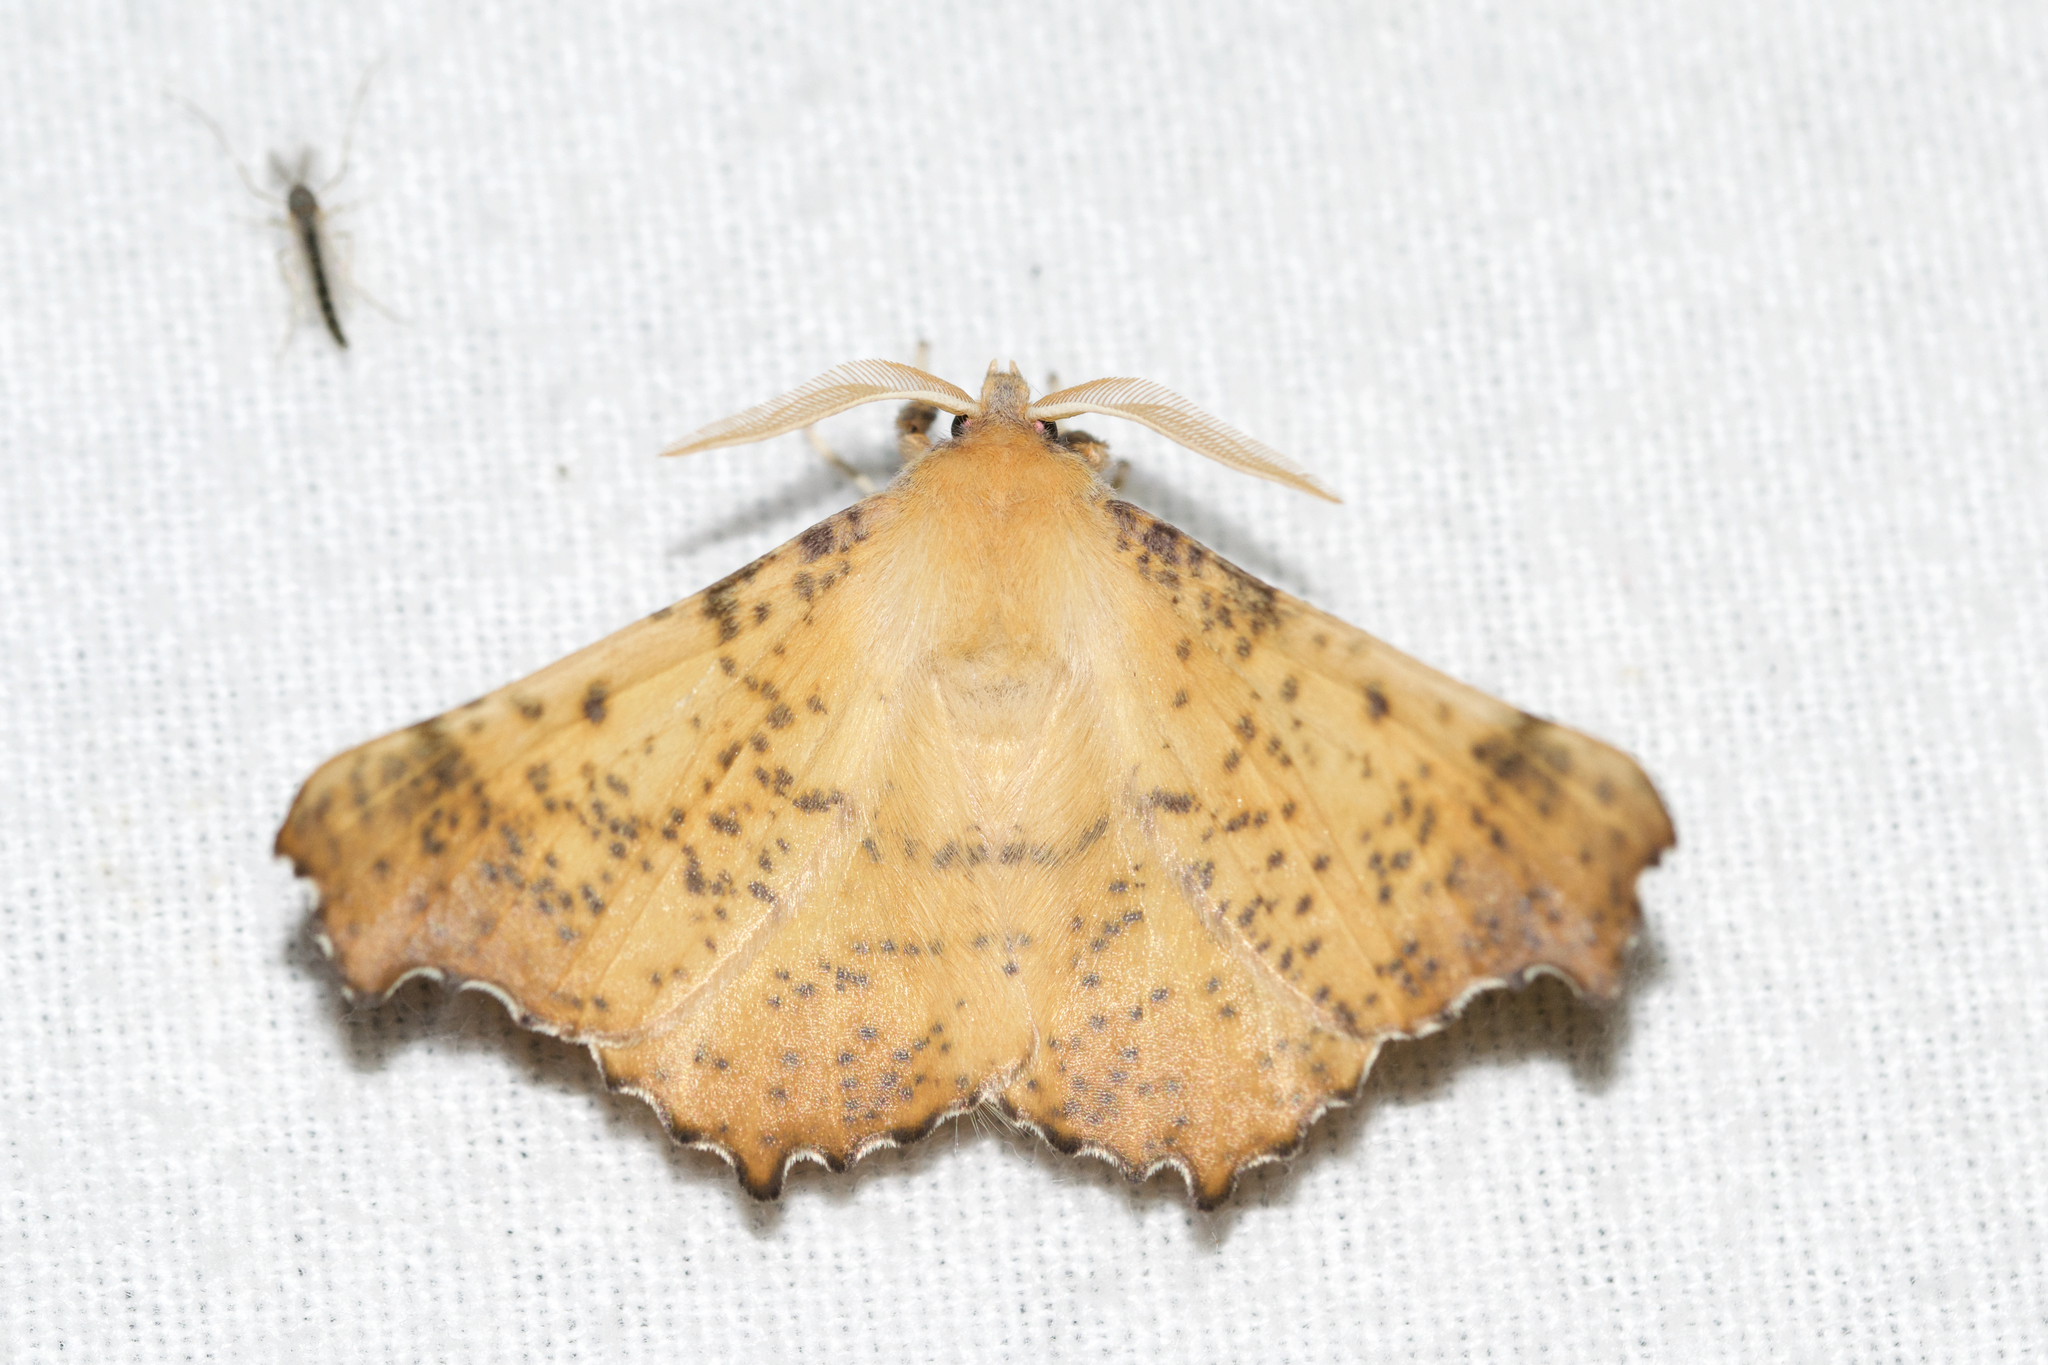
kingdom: Animalia
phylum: Arthropoda
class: Insecta
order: Lepidoptera
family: Geometridae
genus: Ennomos
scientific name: Ennomos magnaria
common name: Maple spanworm
